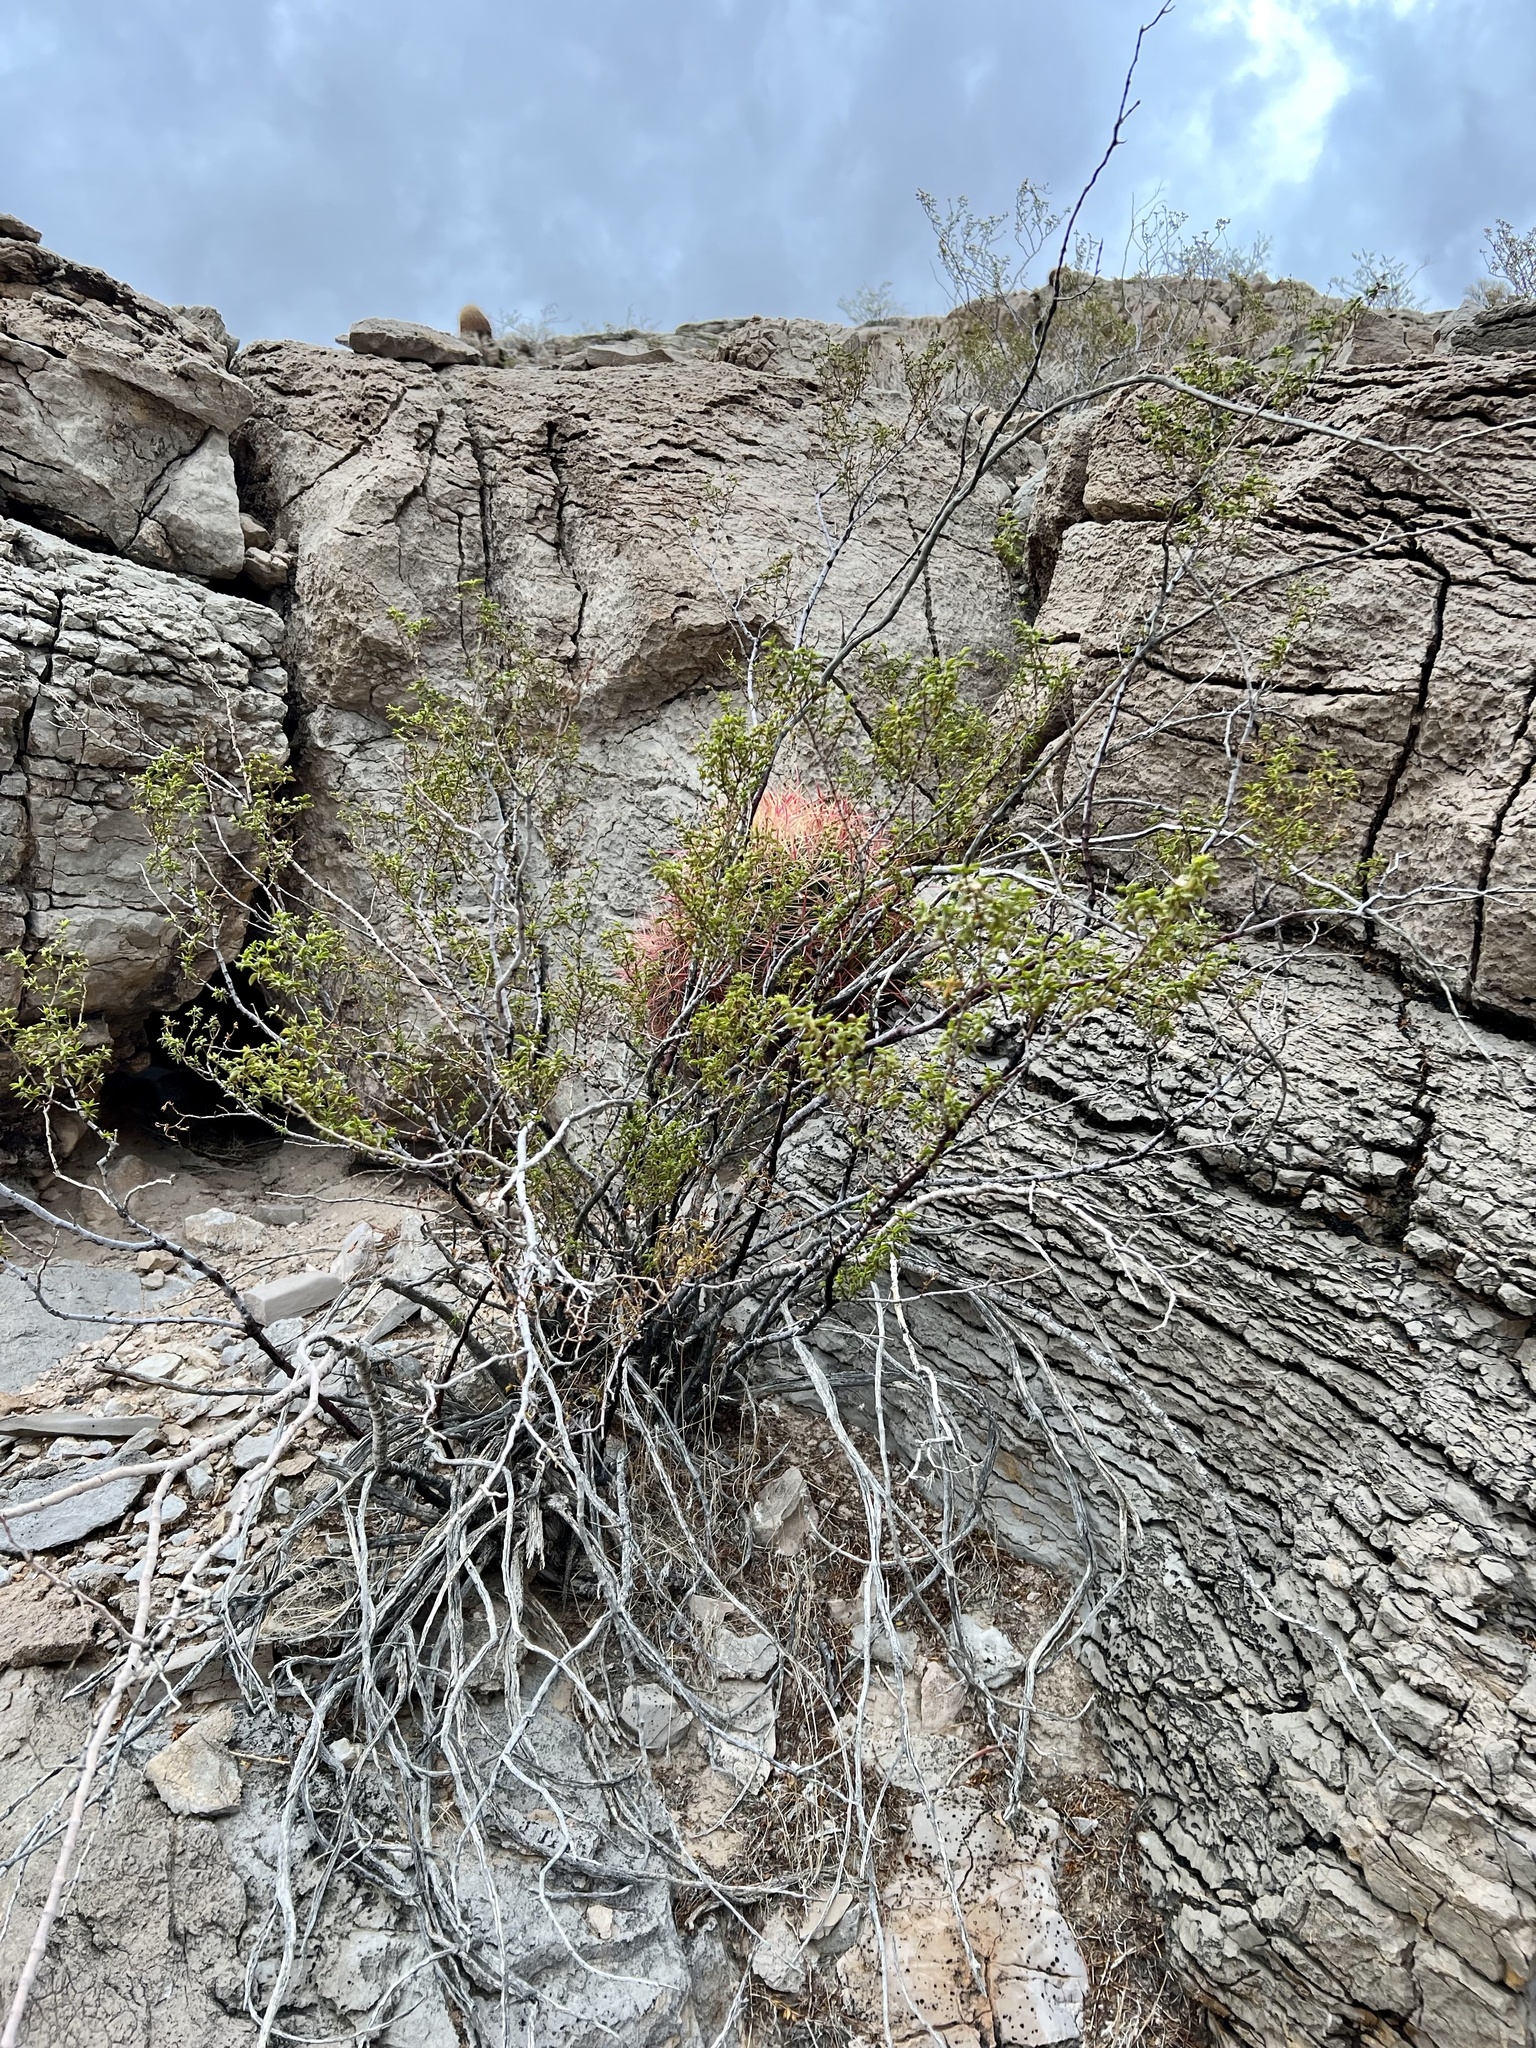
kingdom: Plantae
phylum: Tracheophyta
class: Magnoliopsida
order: Zygophyllales
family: Zygophyllaceae
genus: Larrea
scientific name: Larrea tridentata
